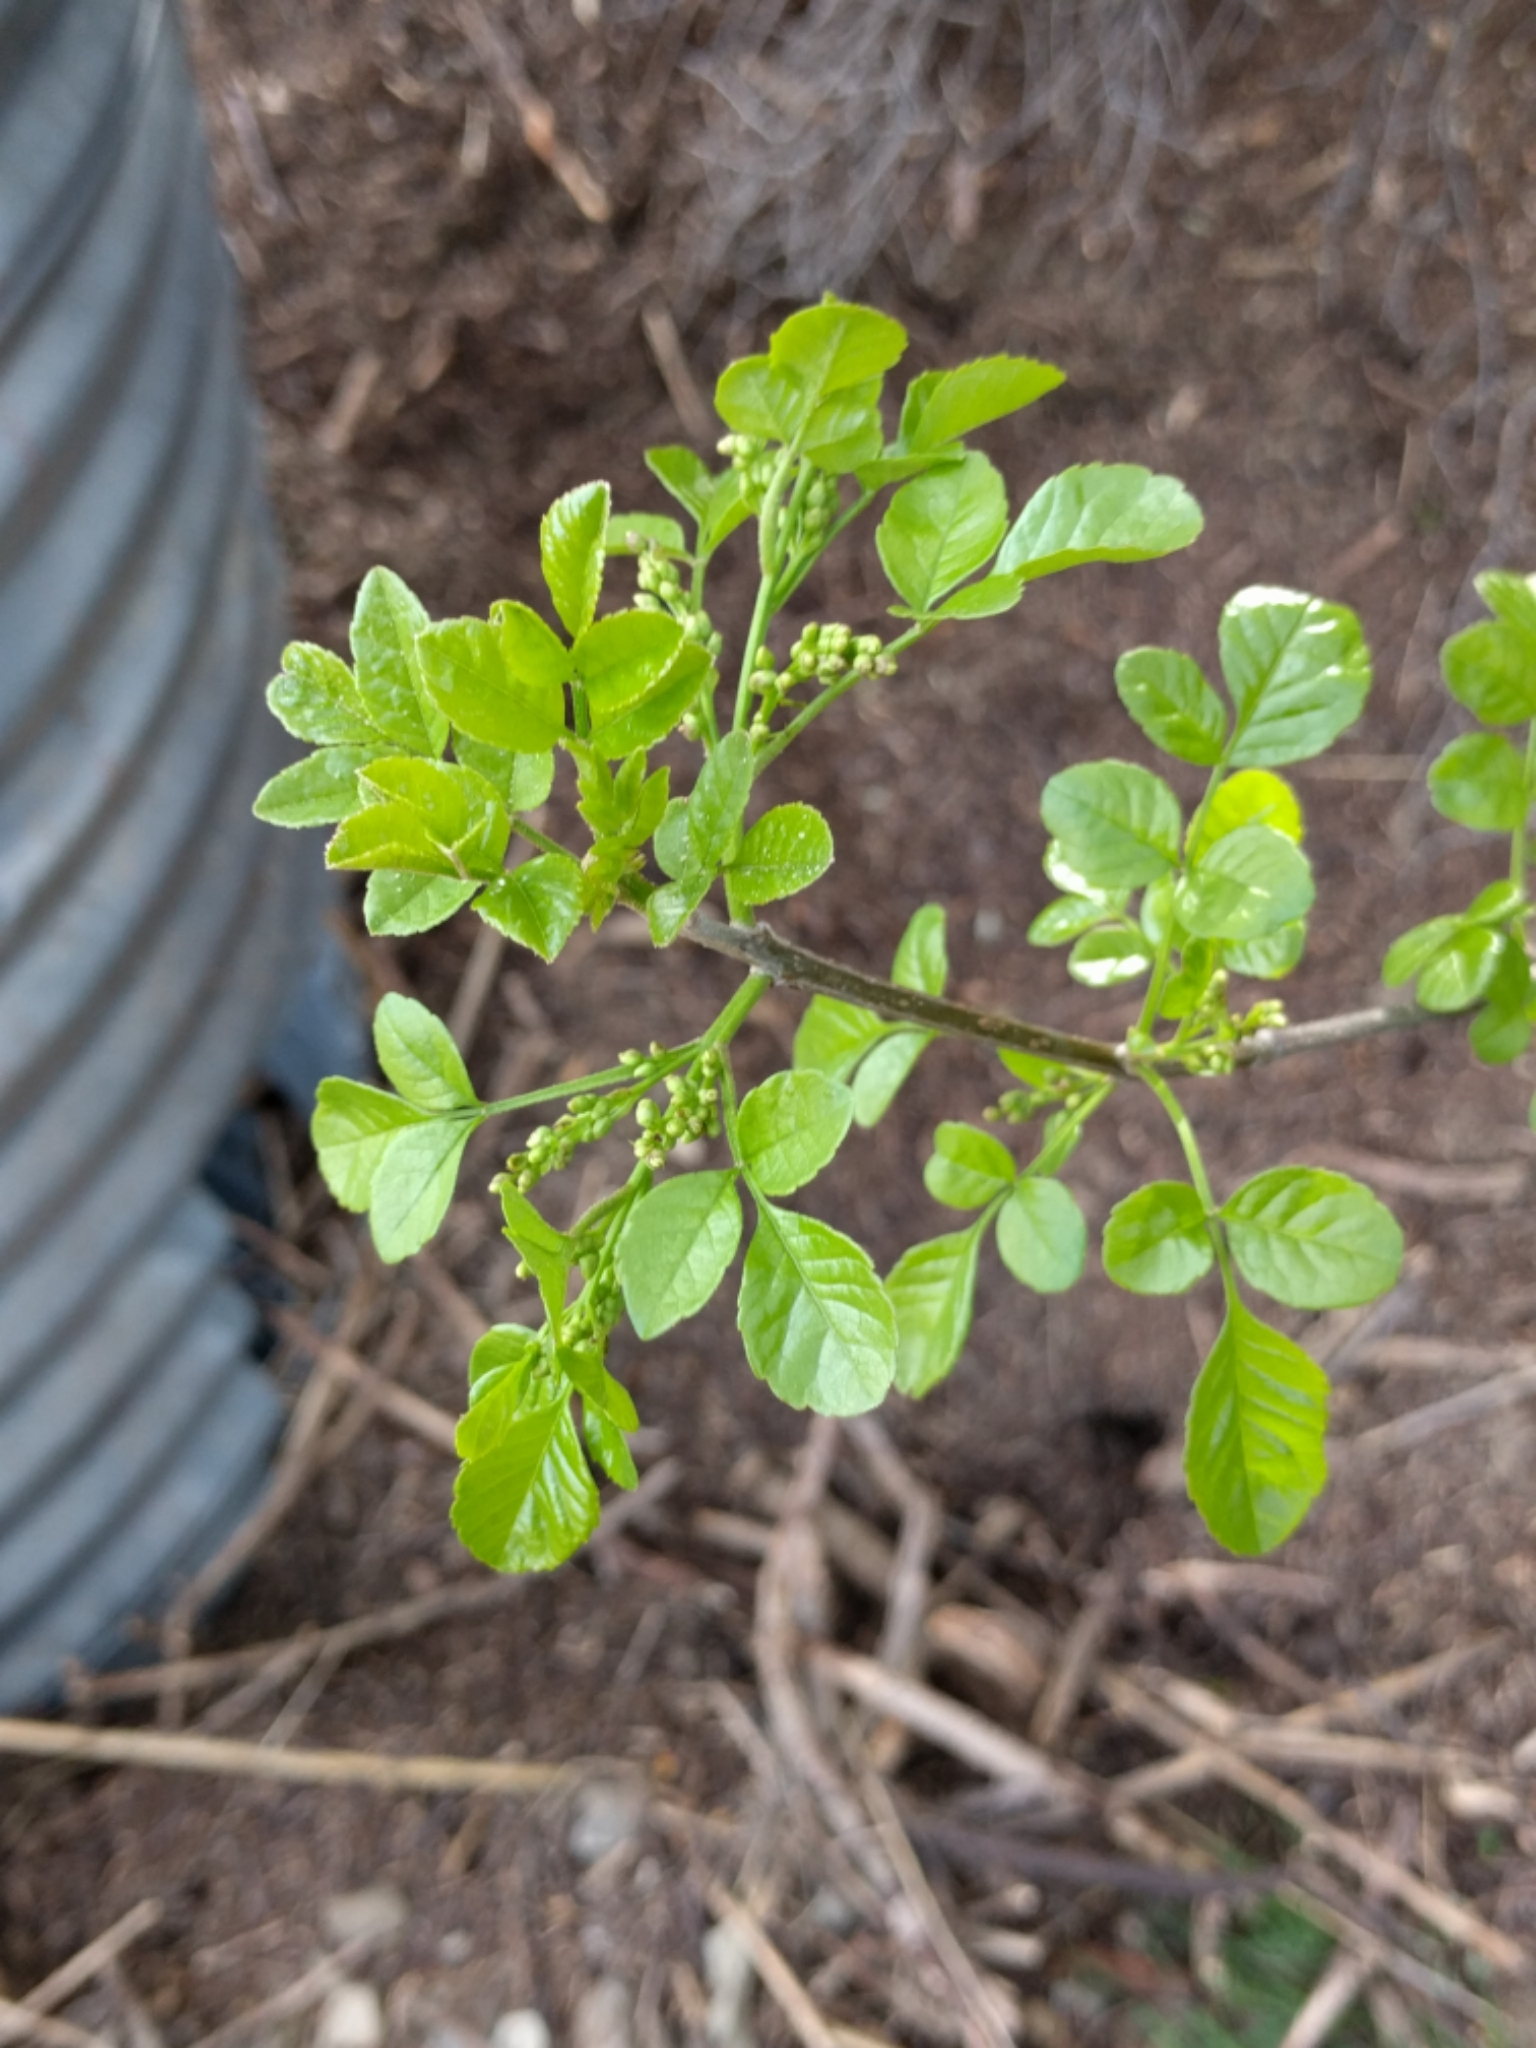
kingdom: Plantae
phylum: Tracheophyta
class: Magnoliopsida
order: Lamiales
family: Oleaceae
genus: Fraxinus
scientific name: Fraxinus dipetala
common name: California ash
